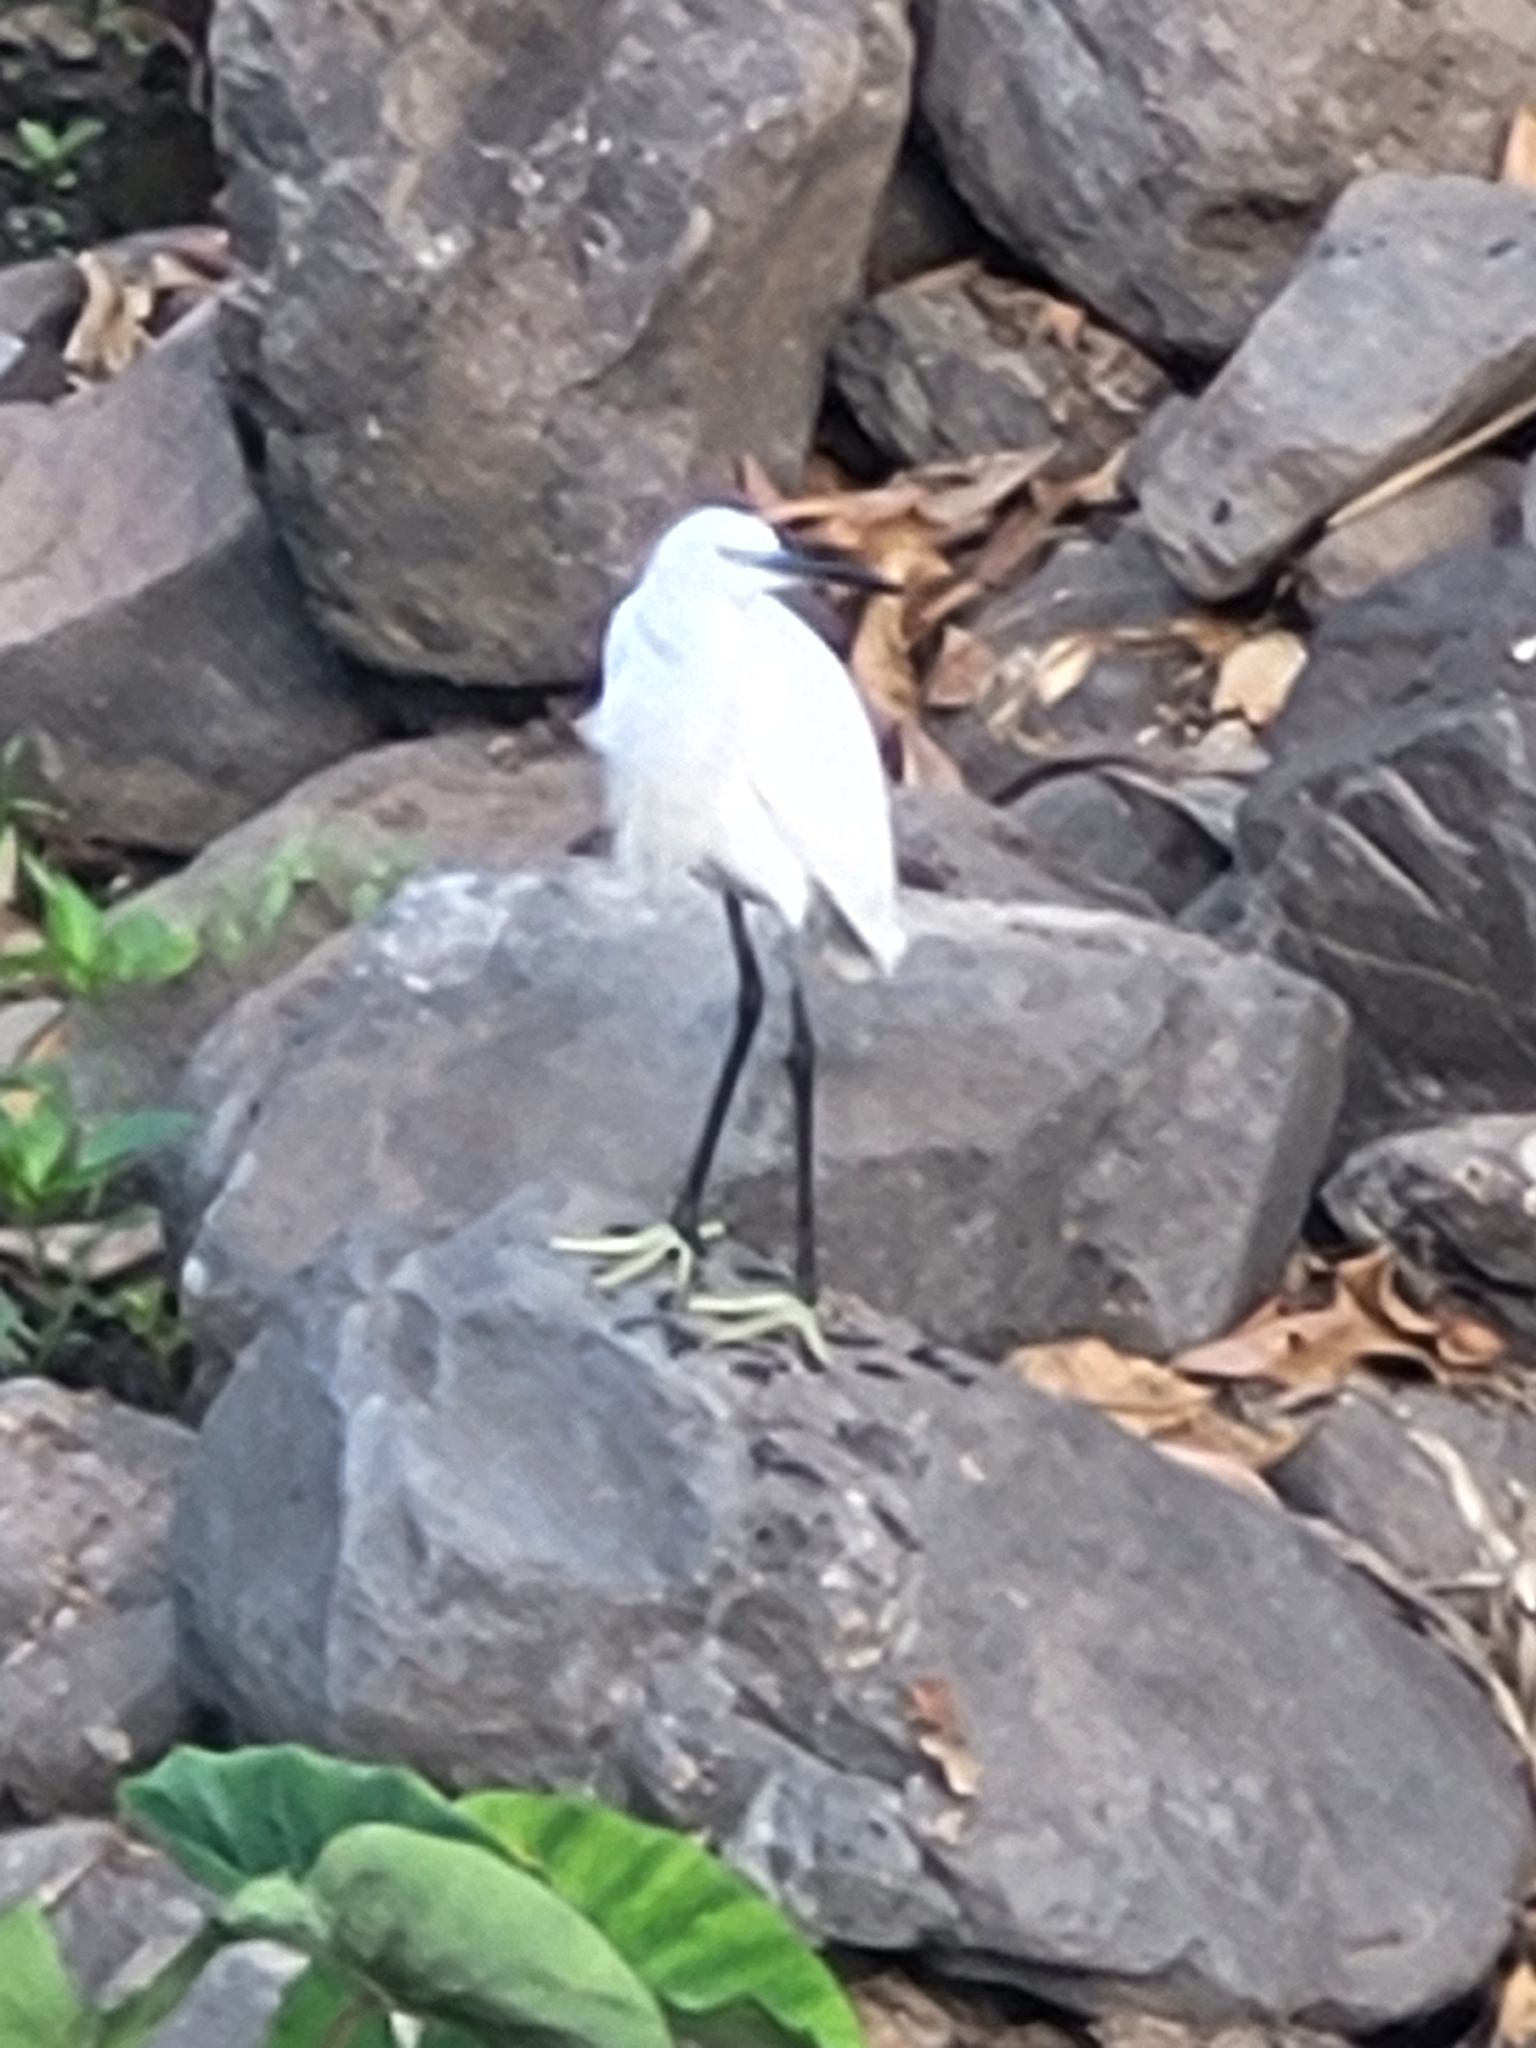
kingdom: Animalia
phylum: Chordata
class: Aves
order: Pelecaniformes
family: Ardeidae
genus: Egretta
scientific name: Egretta garzetta
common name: Little egret
